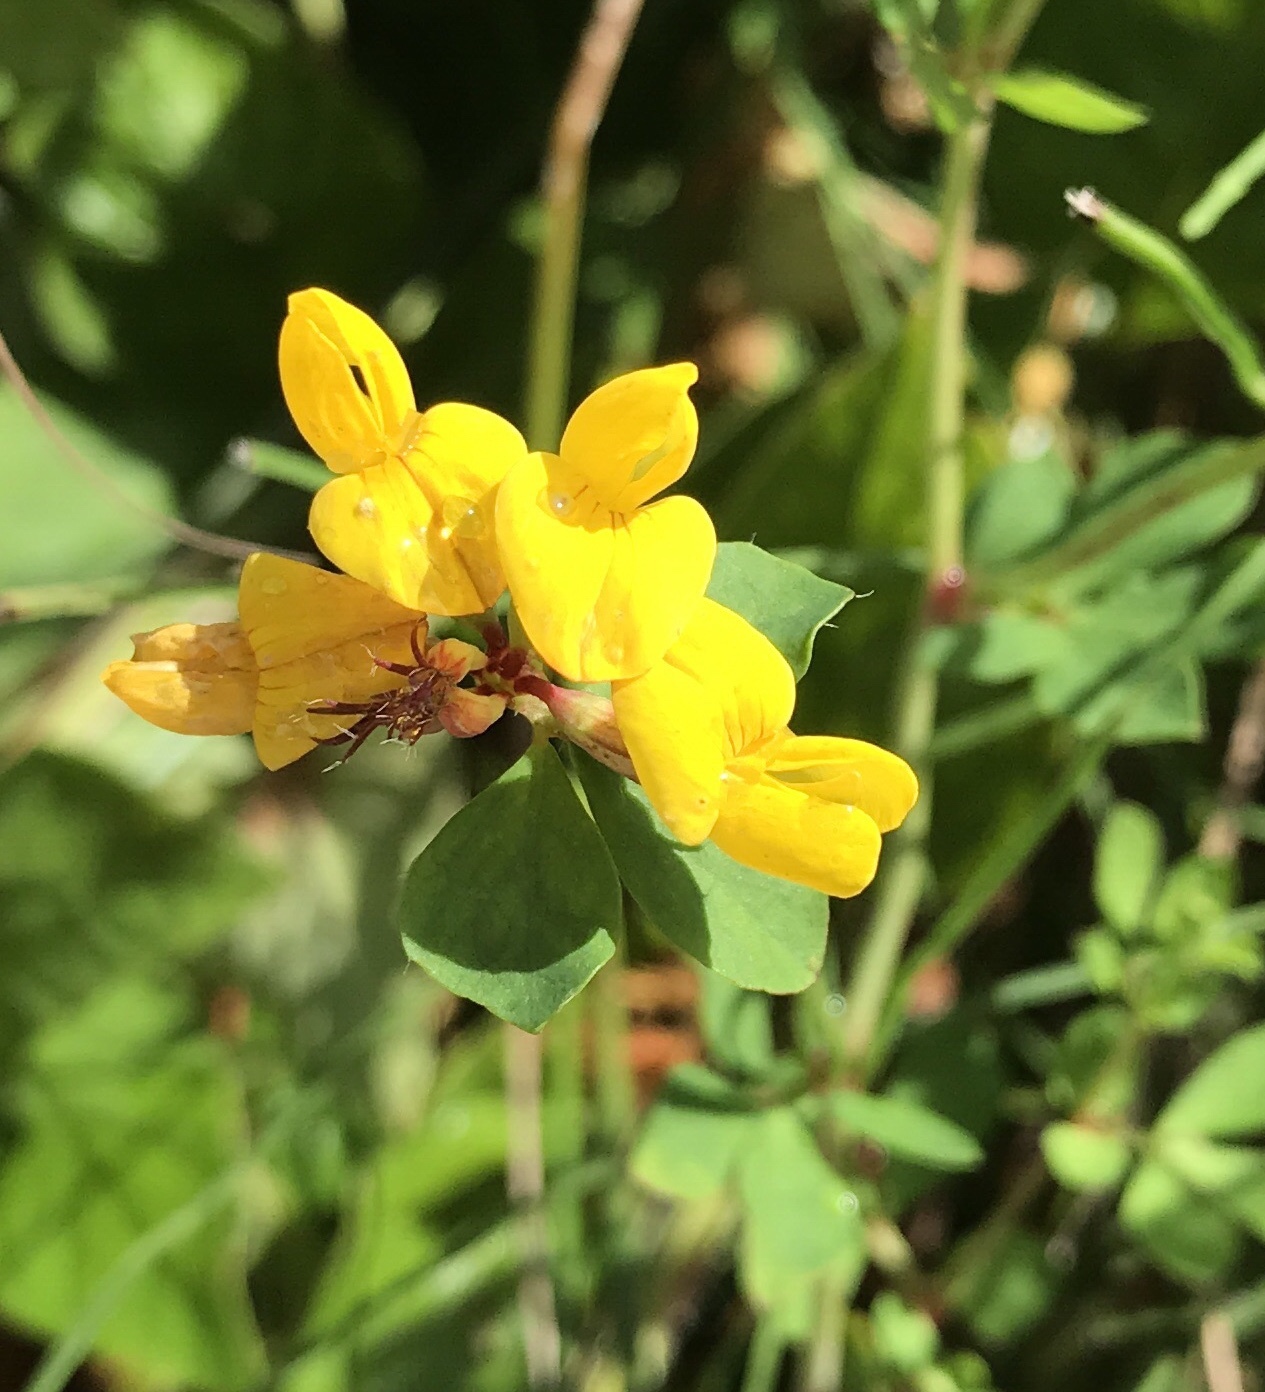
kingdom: Plantae
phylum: Tracheophyta
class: Magnoliopsida
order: Fabales
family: Fabaceae
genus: Lotus
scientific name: Lotus corniculatus
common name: Common bird's-foot-trefoil
